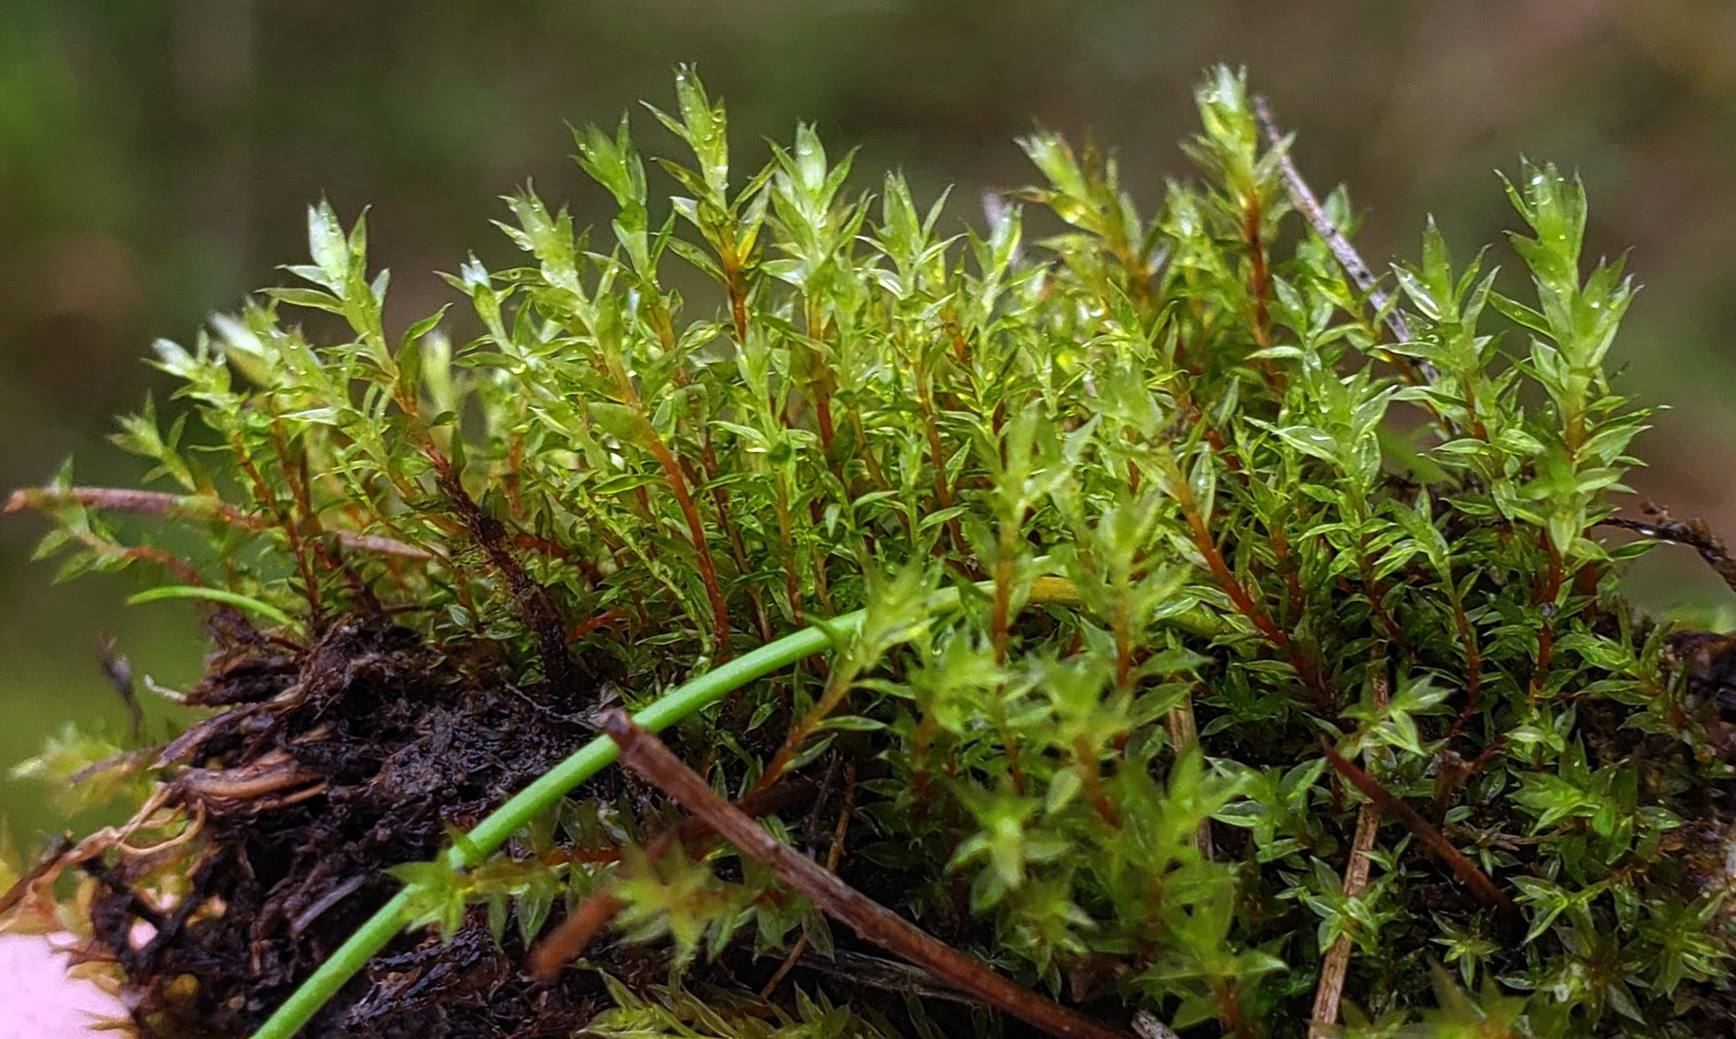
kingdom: Plantae
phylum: Bryophyta
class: Bryopsida
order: Bryales
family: Bryaceae
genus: Ptychostomum
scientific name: Ptychostomum pseudotriquetrum
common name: Long-leaved thread moss
